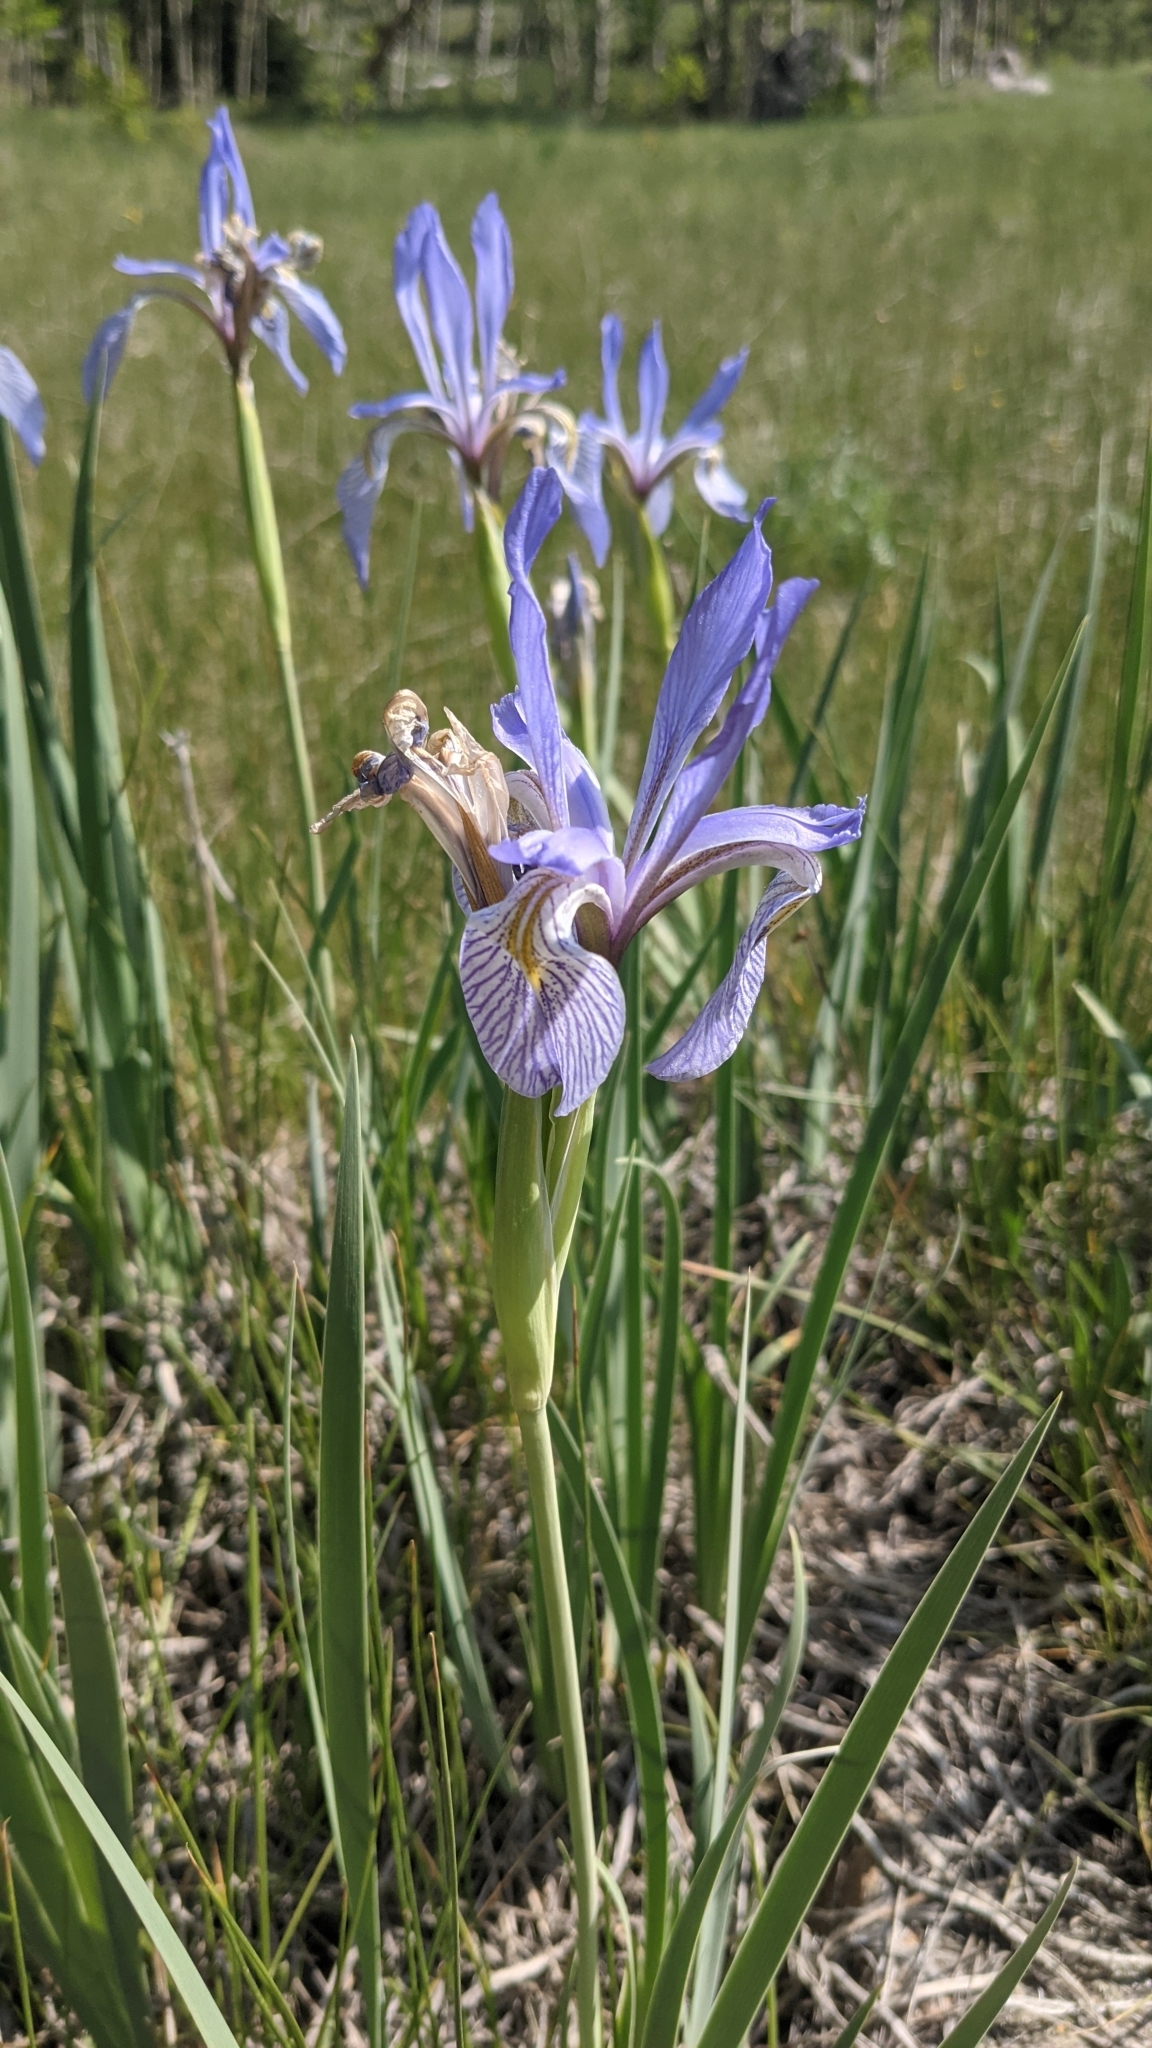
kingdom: Plantae
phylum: Tracheophyta
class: Liliopsida
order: Asparagales
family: Iridaceae
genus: Iris
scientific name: Iris missouriensis
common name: Rocky mountain iris
